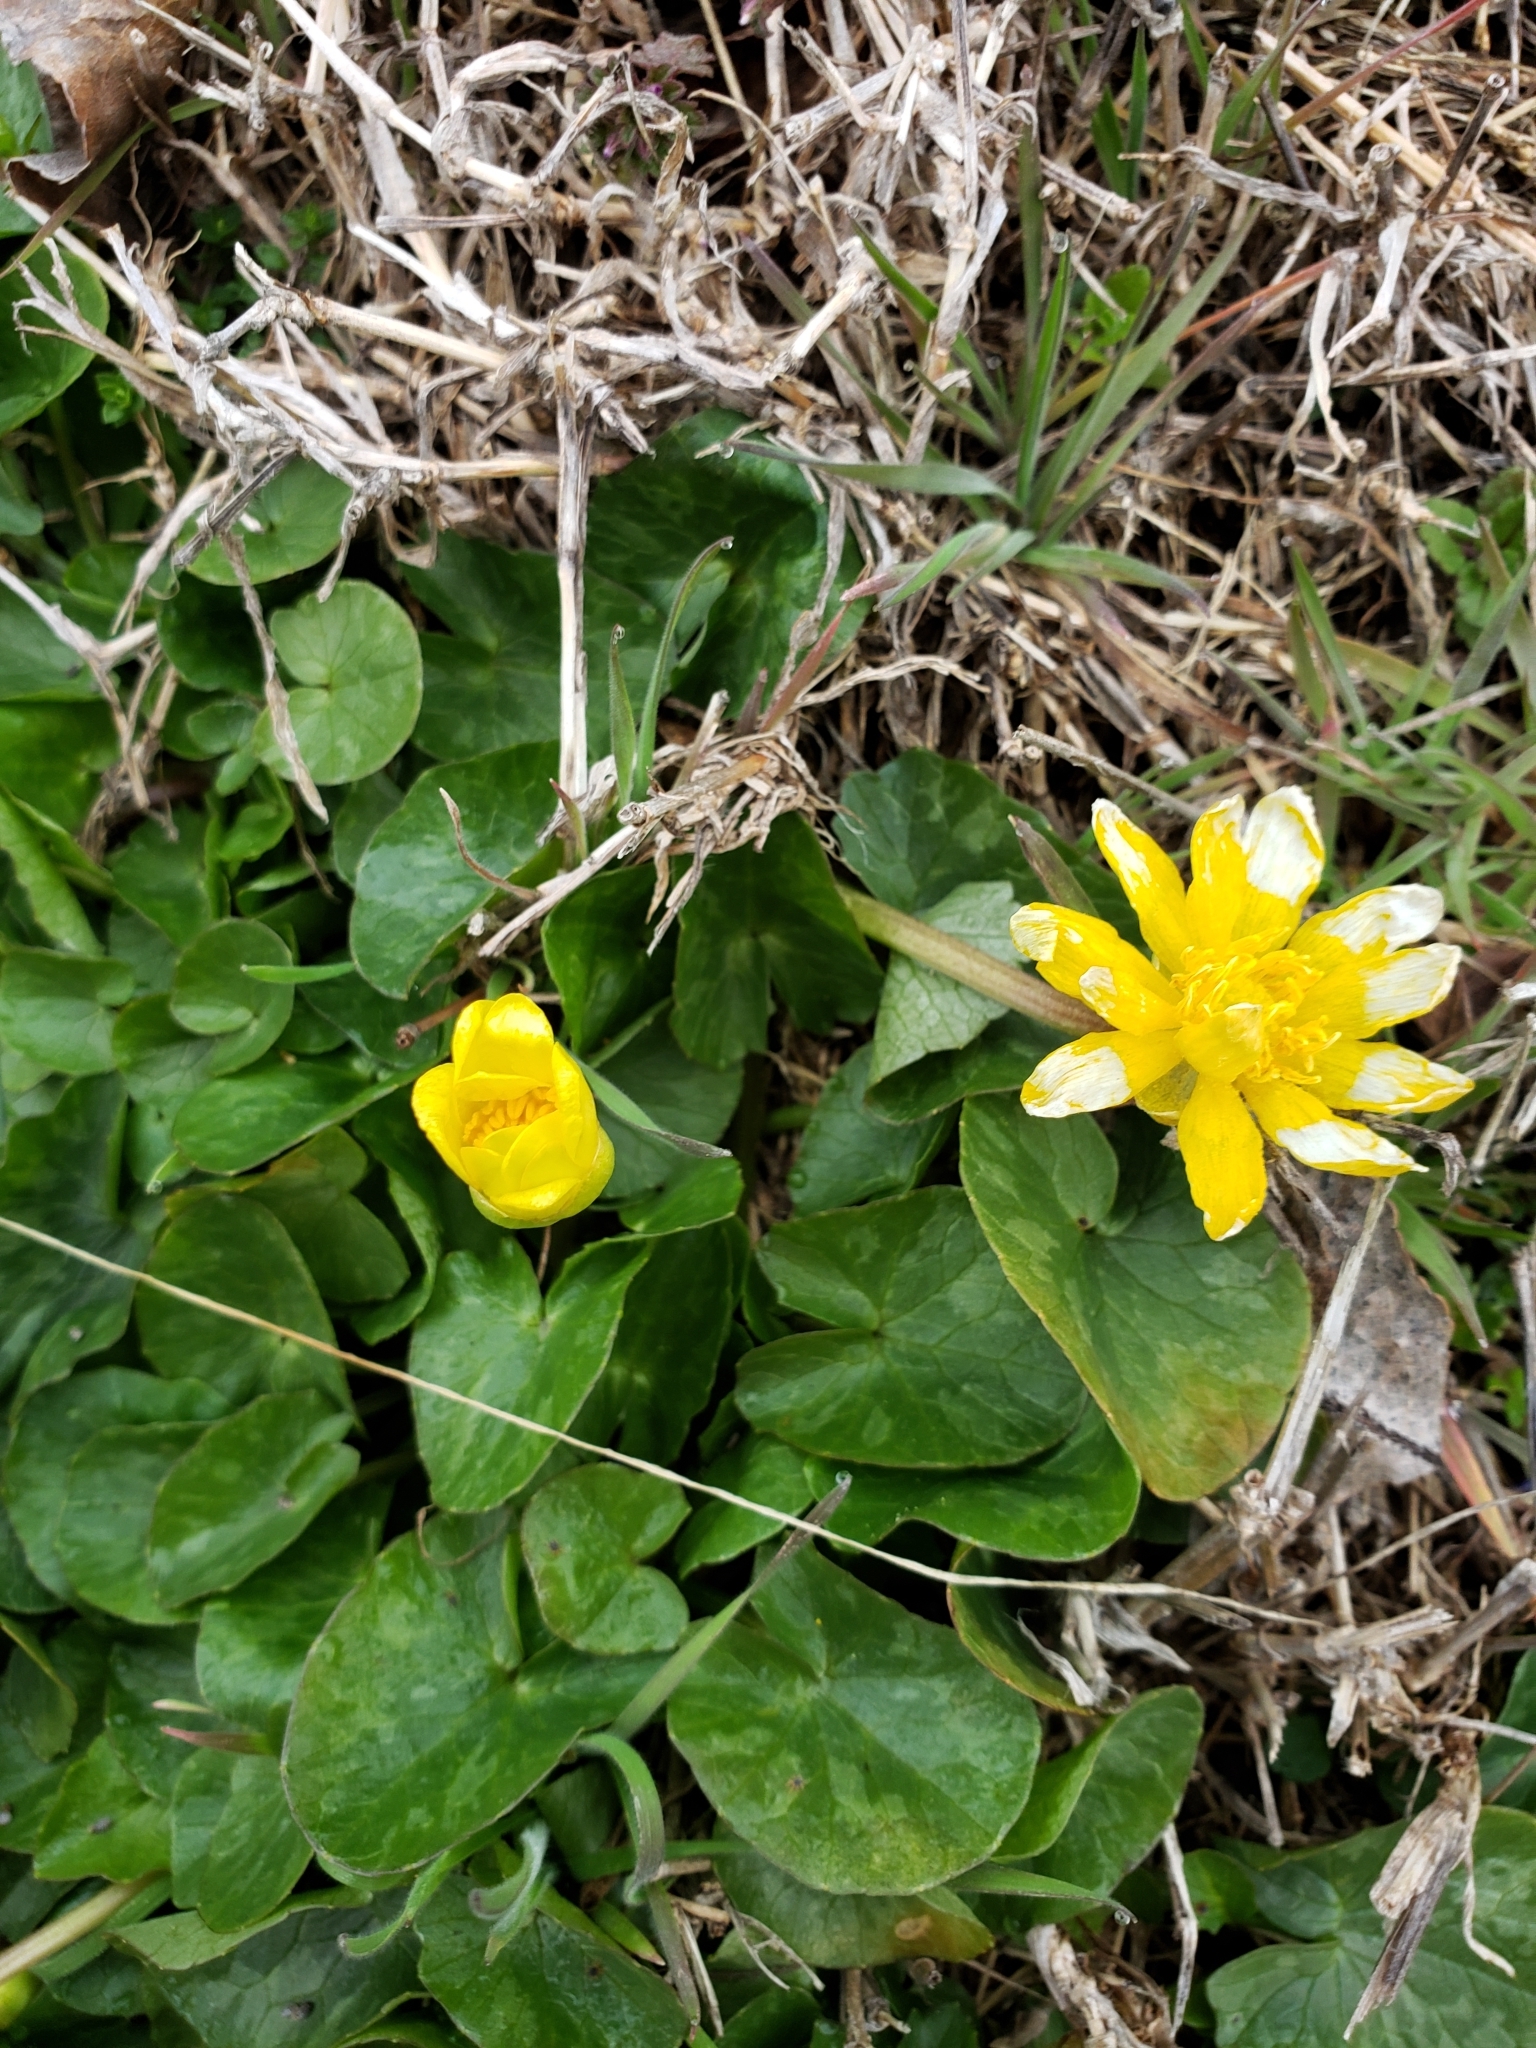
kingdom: Plantae
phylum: Tracheophyta
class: Magnoliopsida
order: Ranunculales
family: Ranunculaceae
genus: Ficaria
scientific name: Ficaria verna
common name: Lesser celandine
